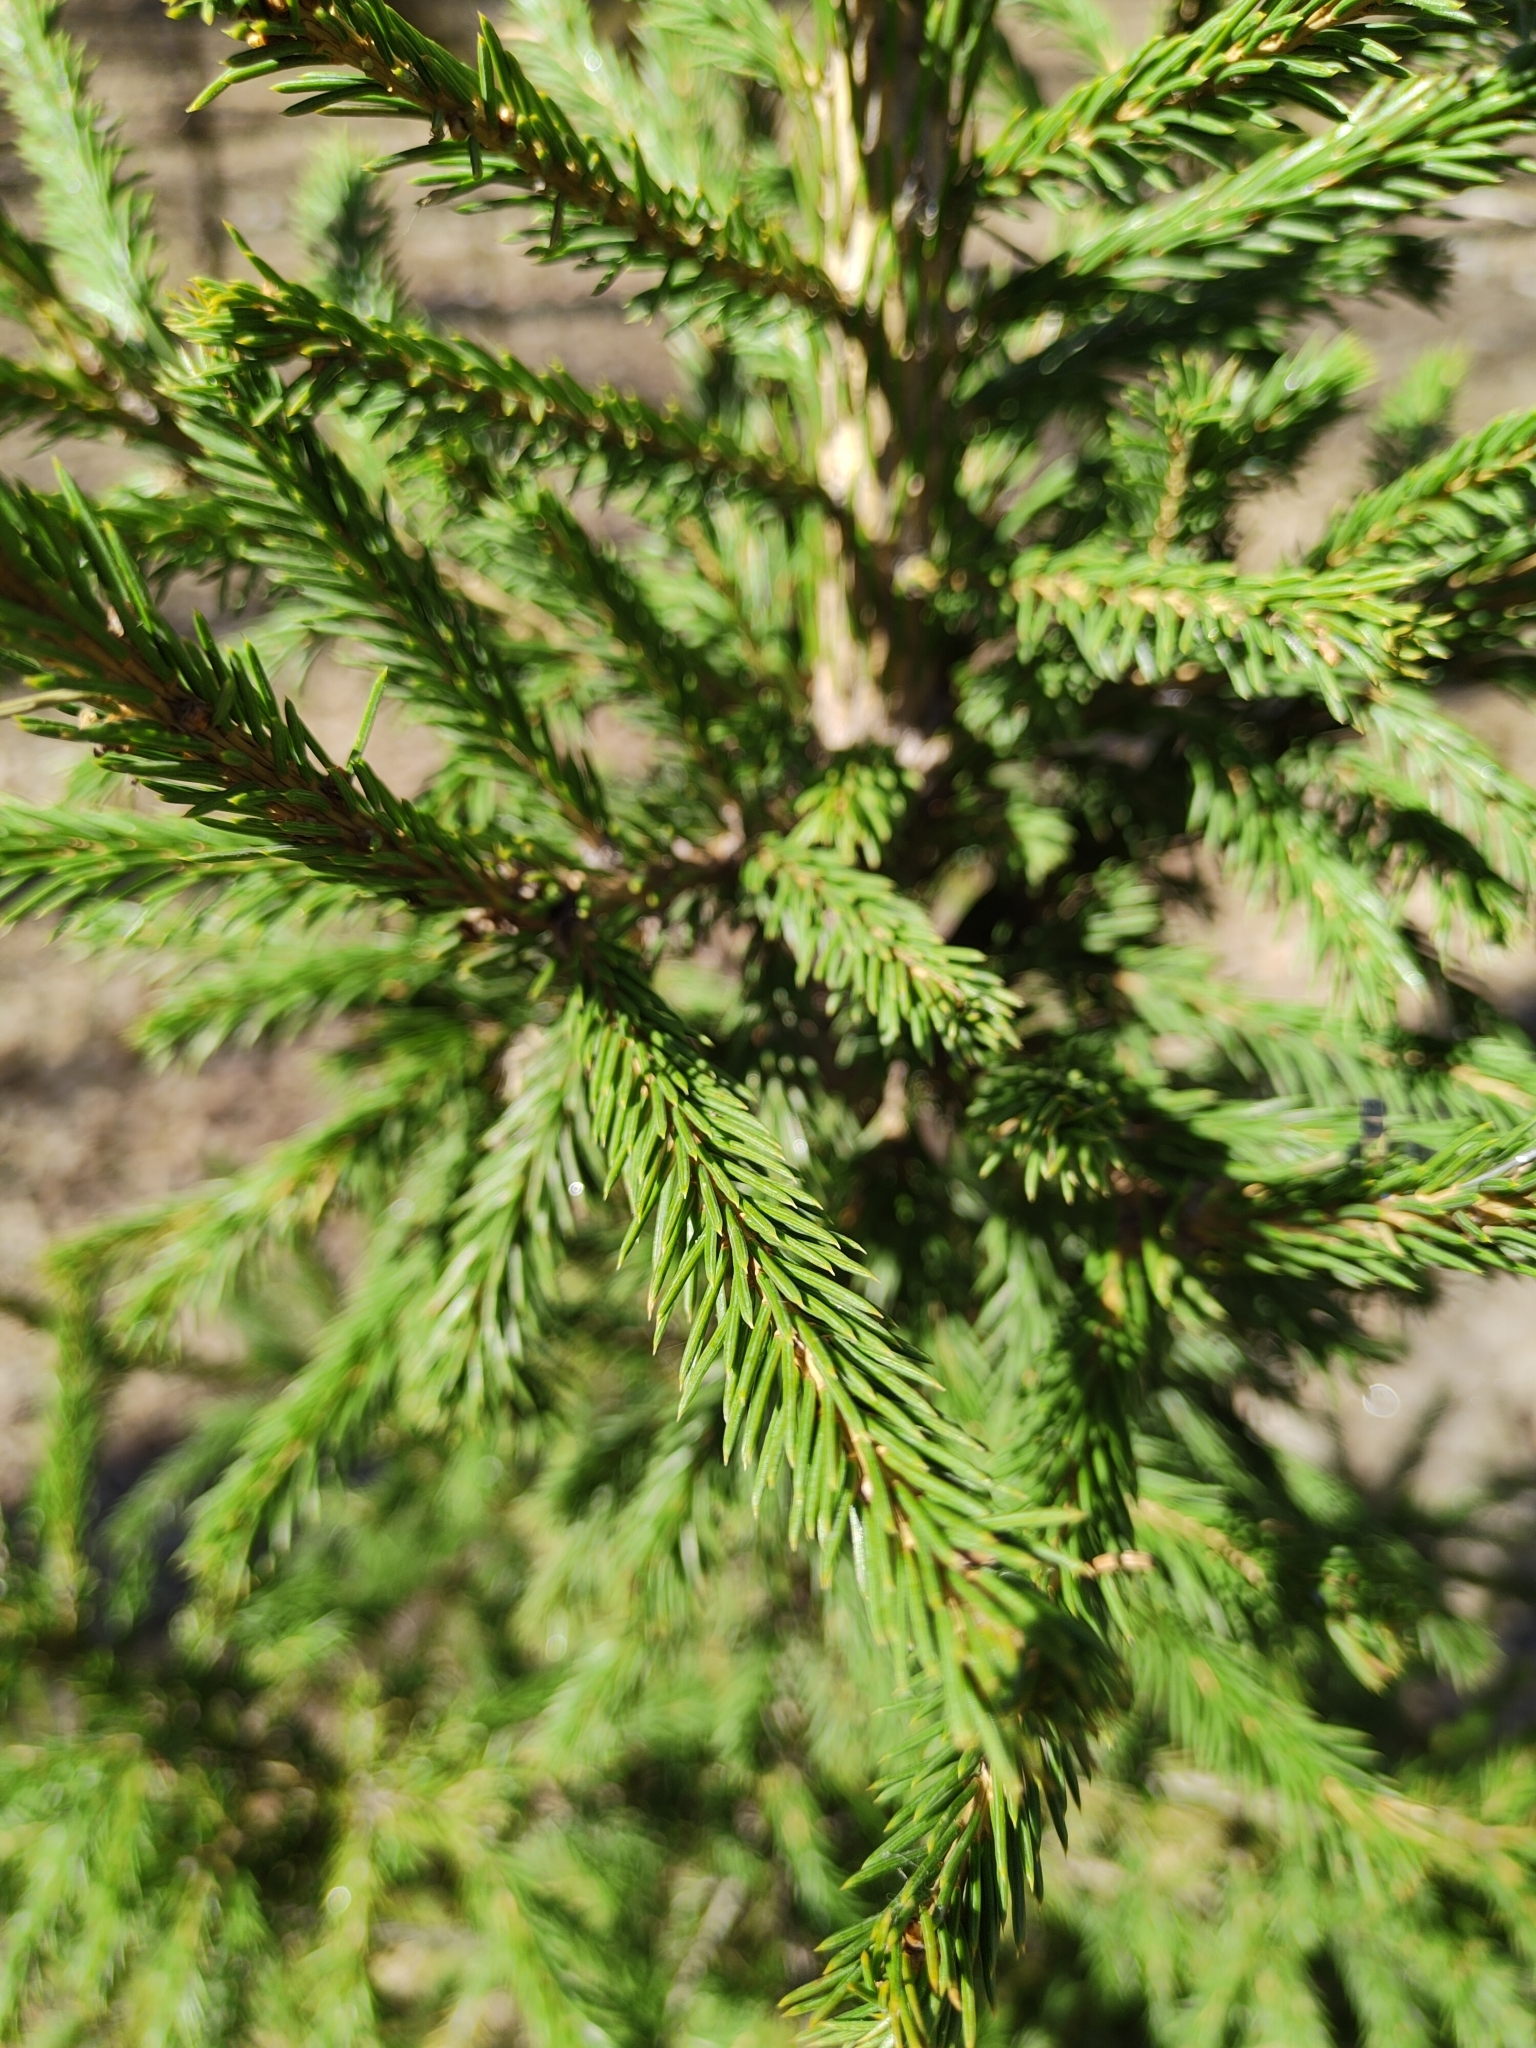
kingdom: Plantae
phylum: Tracheophyta
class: Pinopsida
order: Pinales
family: Pinaceae
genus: Picea
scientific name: Picea obovata
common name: Siberian spruce
